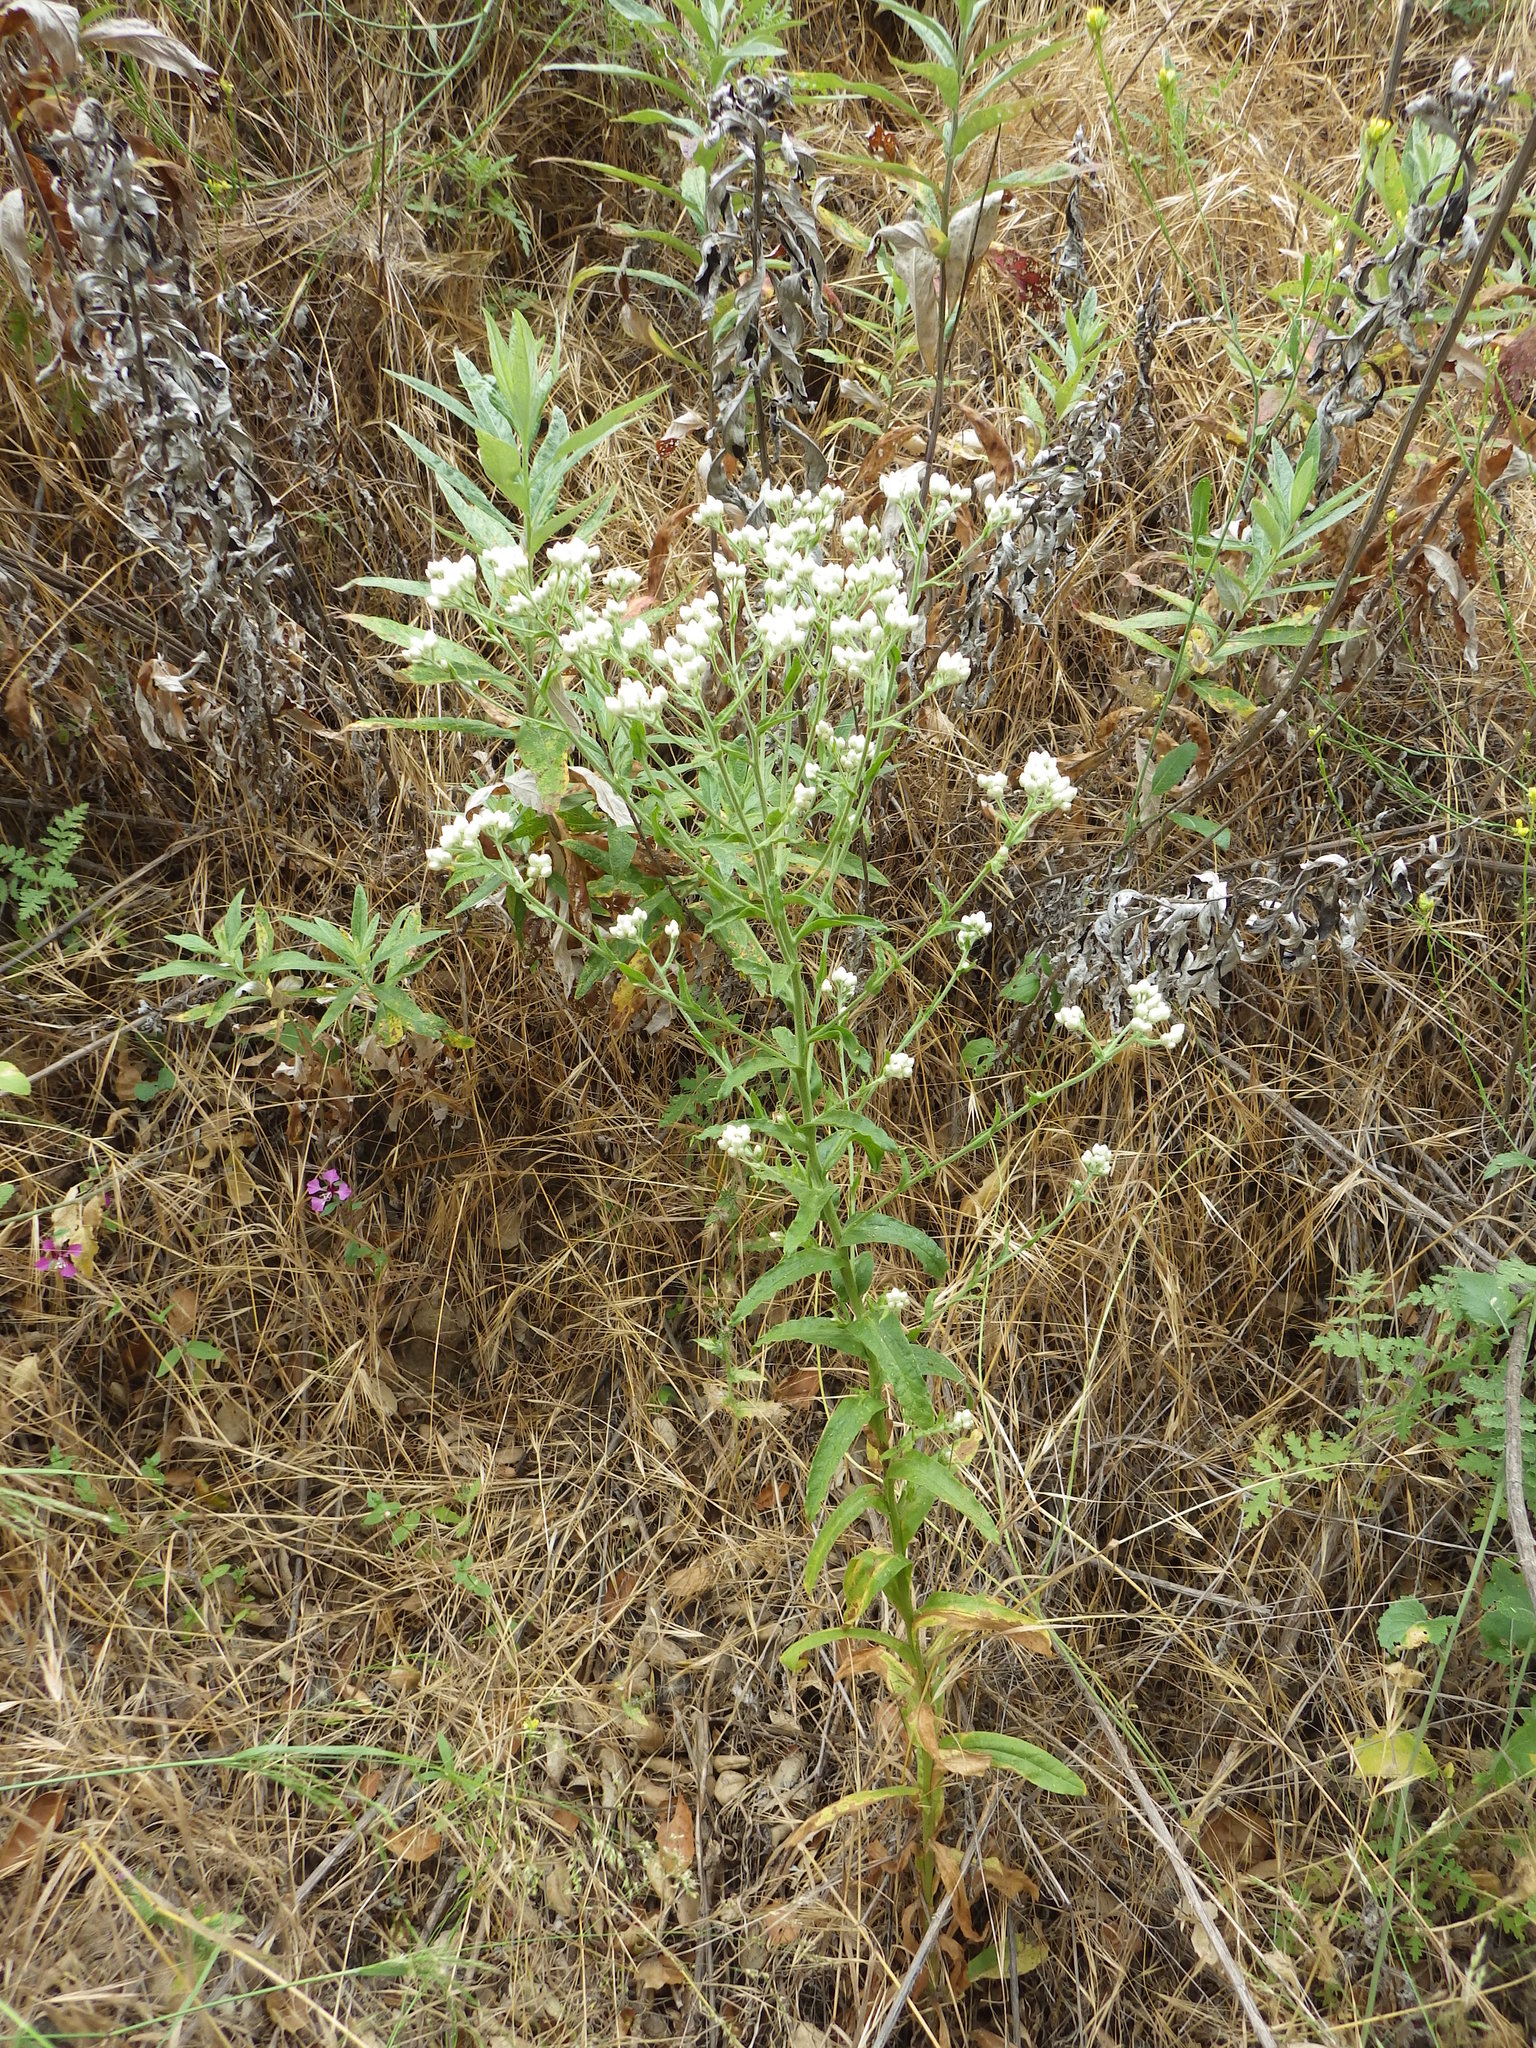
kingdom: Plantae
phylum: Tracheophyta
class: Magnoliopsida
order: Asterales
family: Asteraceae
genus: Pseudognaphalium
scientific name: Pseudognaphalium californicum
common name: California rabbit-tobacco
